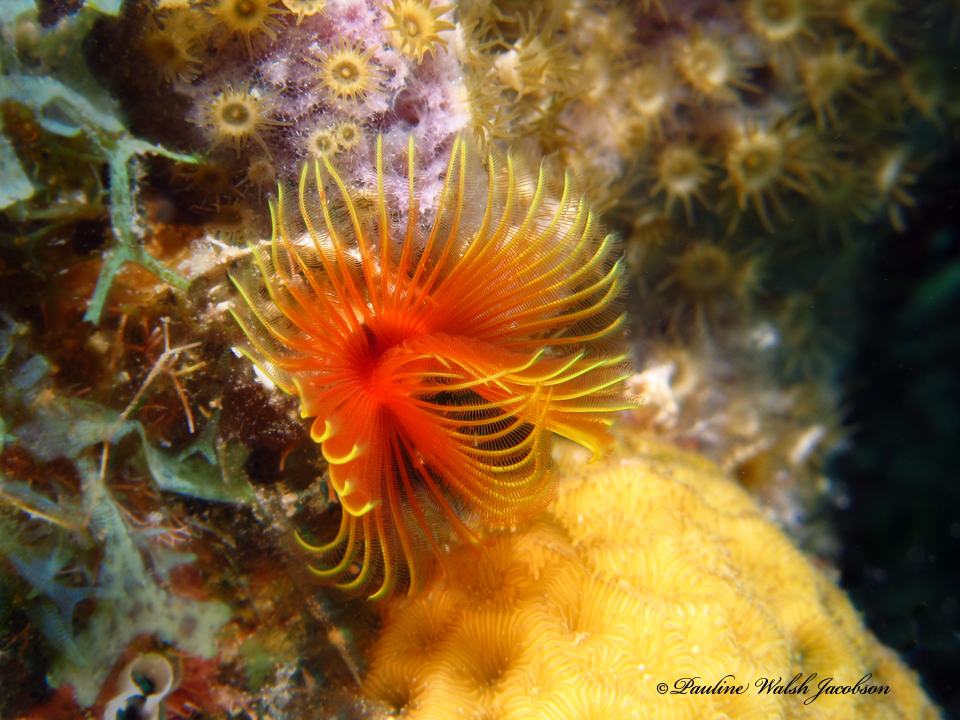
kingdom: Animalia
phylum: Annelida
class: Polychaeta
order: Sabellida
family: Serpulidae
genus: Pomatostegus
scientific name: Pomatostegus stellatus
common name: Star tubeworm
